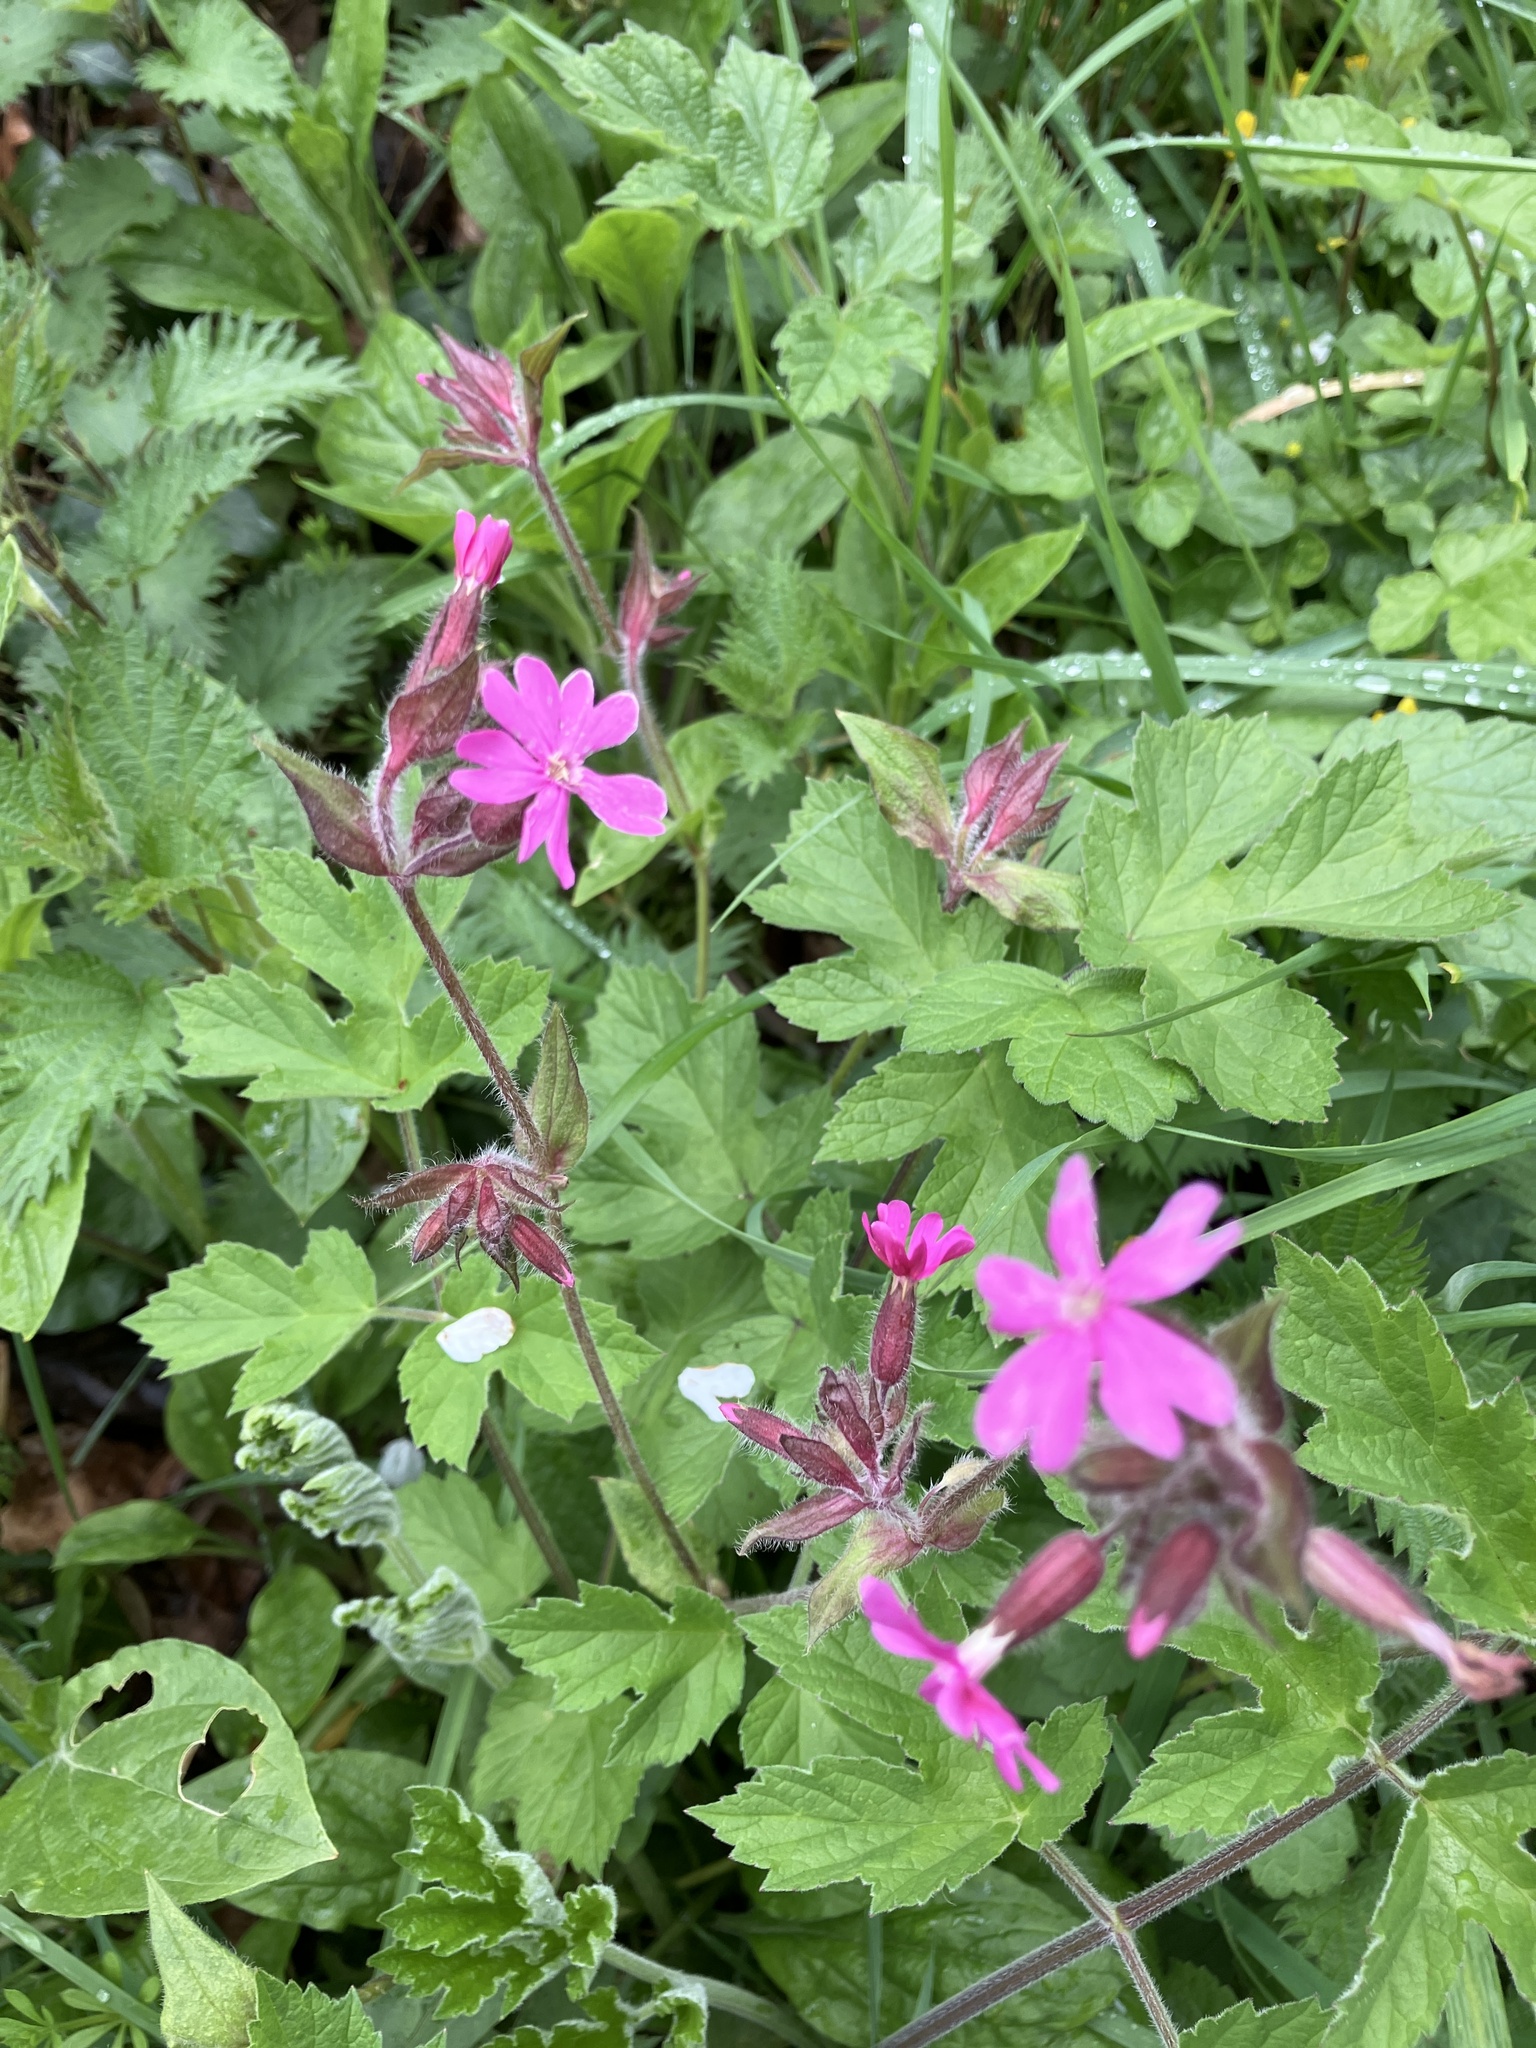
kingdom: Plantae
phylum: Tracheophyta
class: Magnoliopsida
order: Caryophyllales
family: Caryophyllaceae
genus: Silene
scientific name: Silene dioica
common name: Red campion
